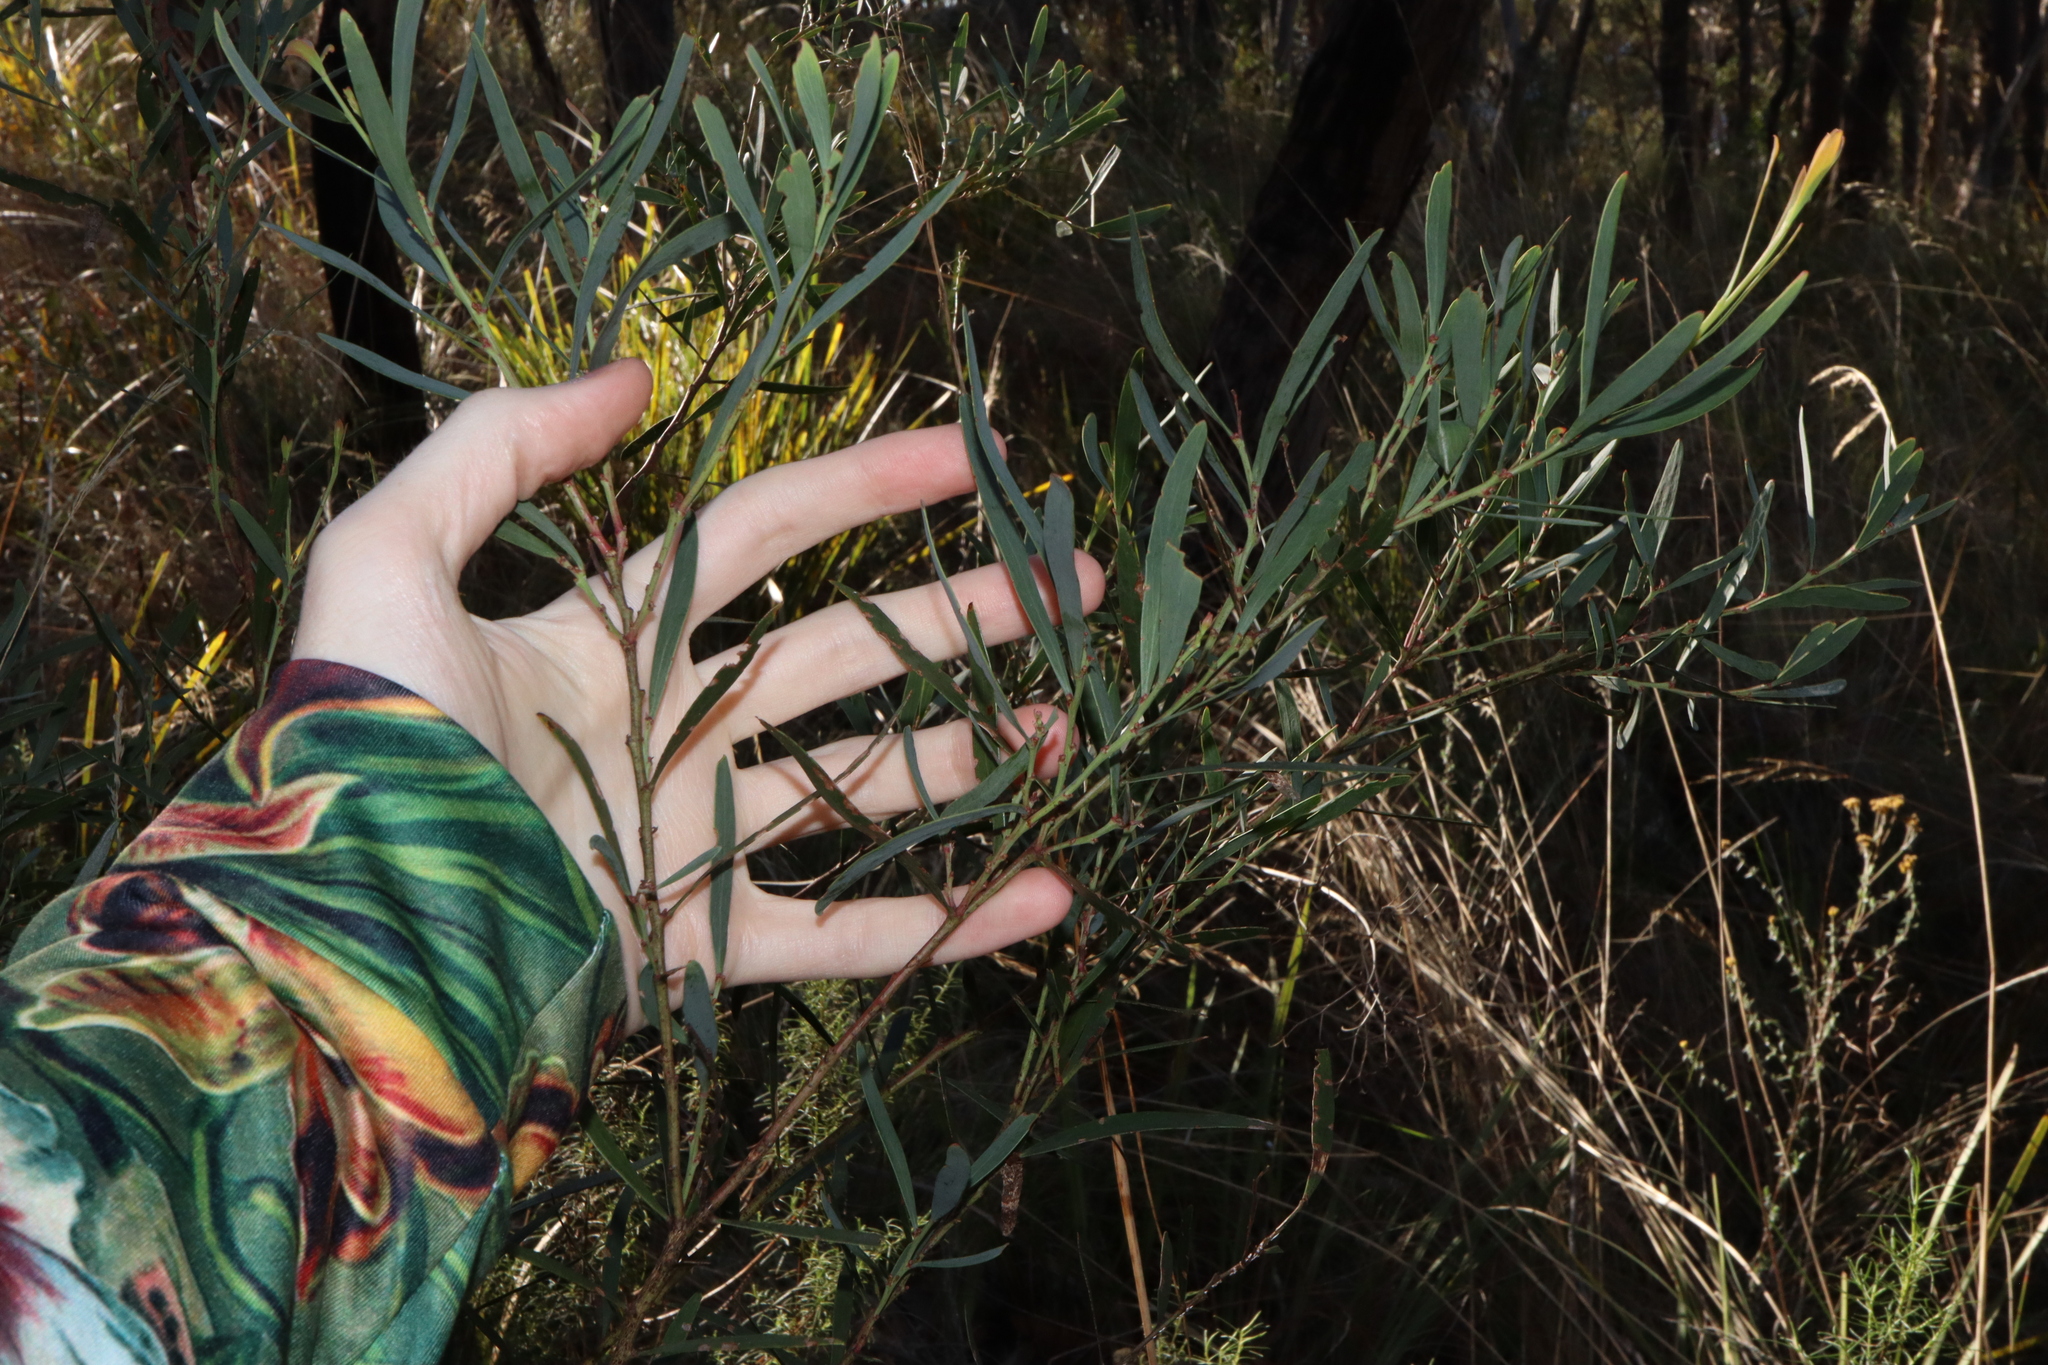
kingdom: Plantae
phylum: Tracheophyta
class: Magnoliopsida
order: Fabales
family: Fabaceae
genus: Daviesia
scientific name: Daviesia leptophylla
